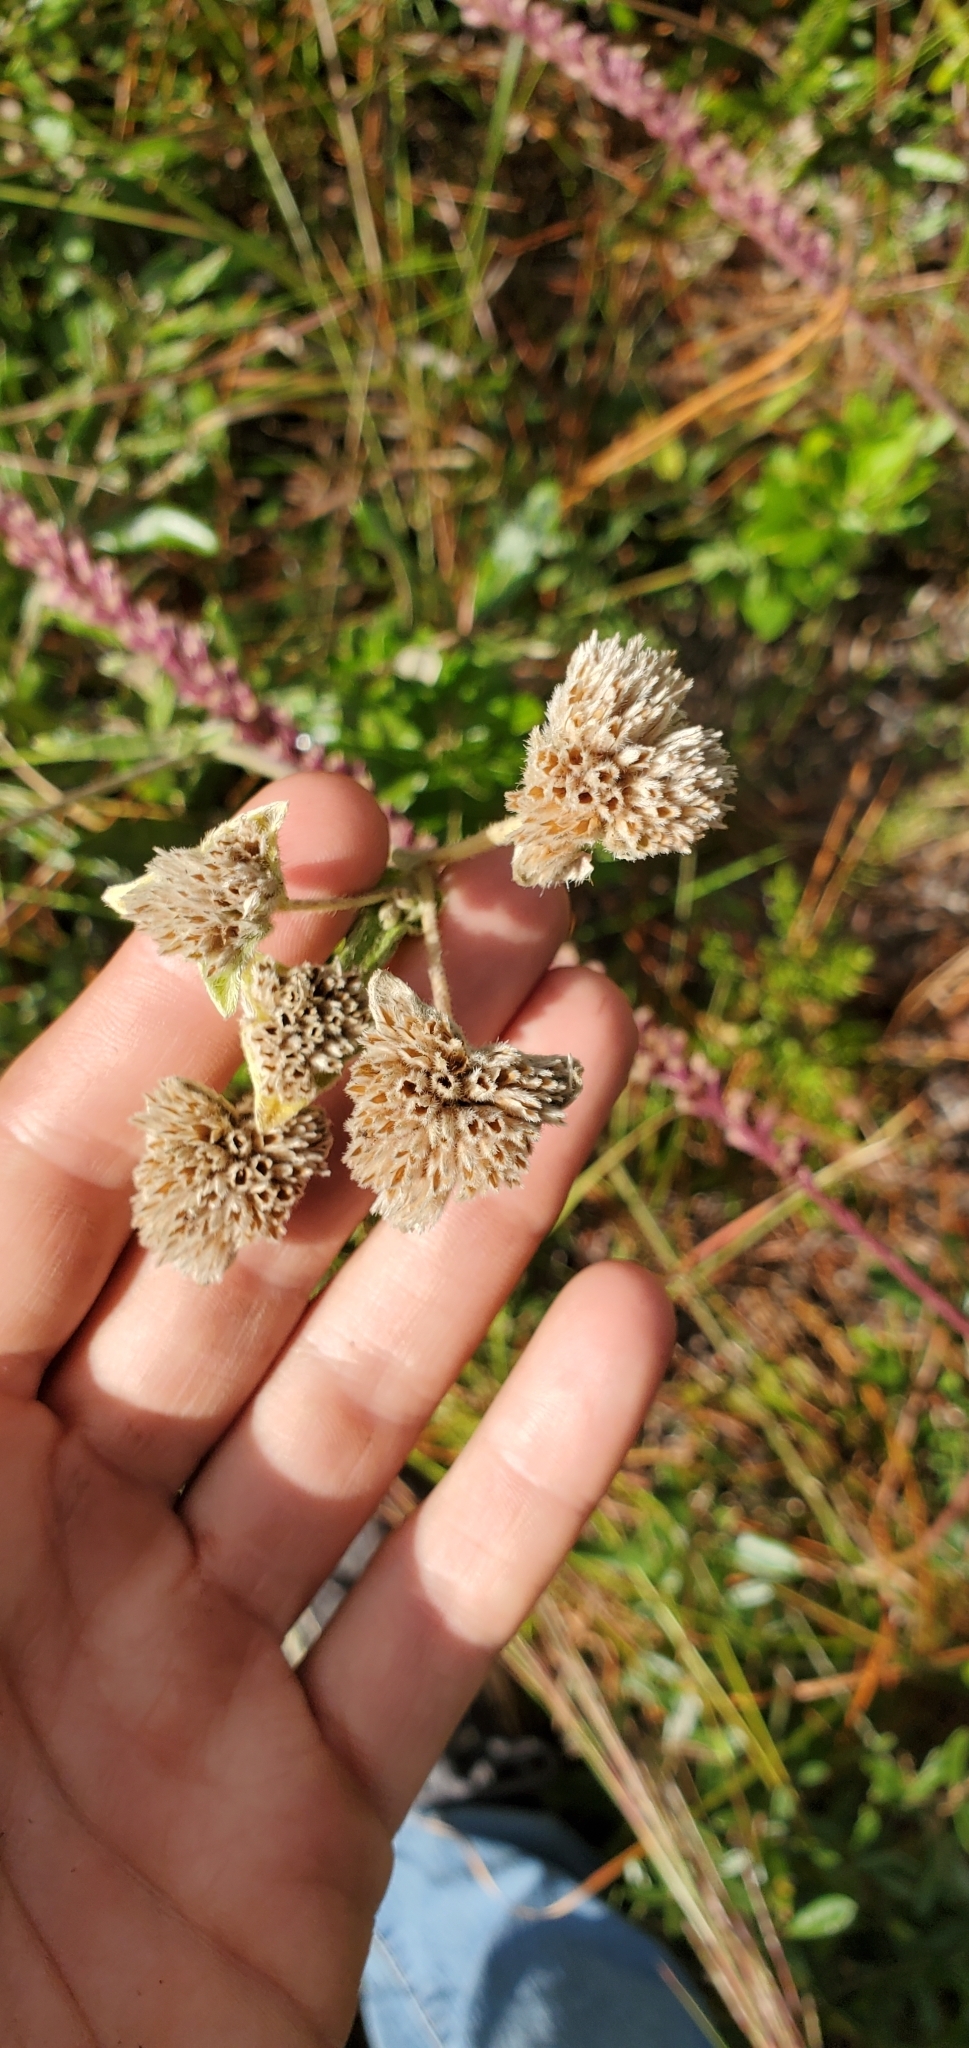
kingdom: Plantae
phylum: Tracheophyta
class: Magnoliopsida
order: Asterales
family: Asteraceae
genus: Elephantopus
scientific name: Elephantopus elatus
